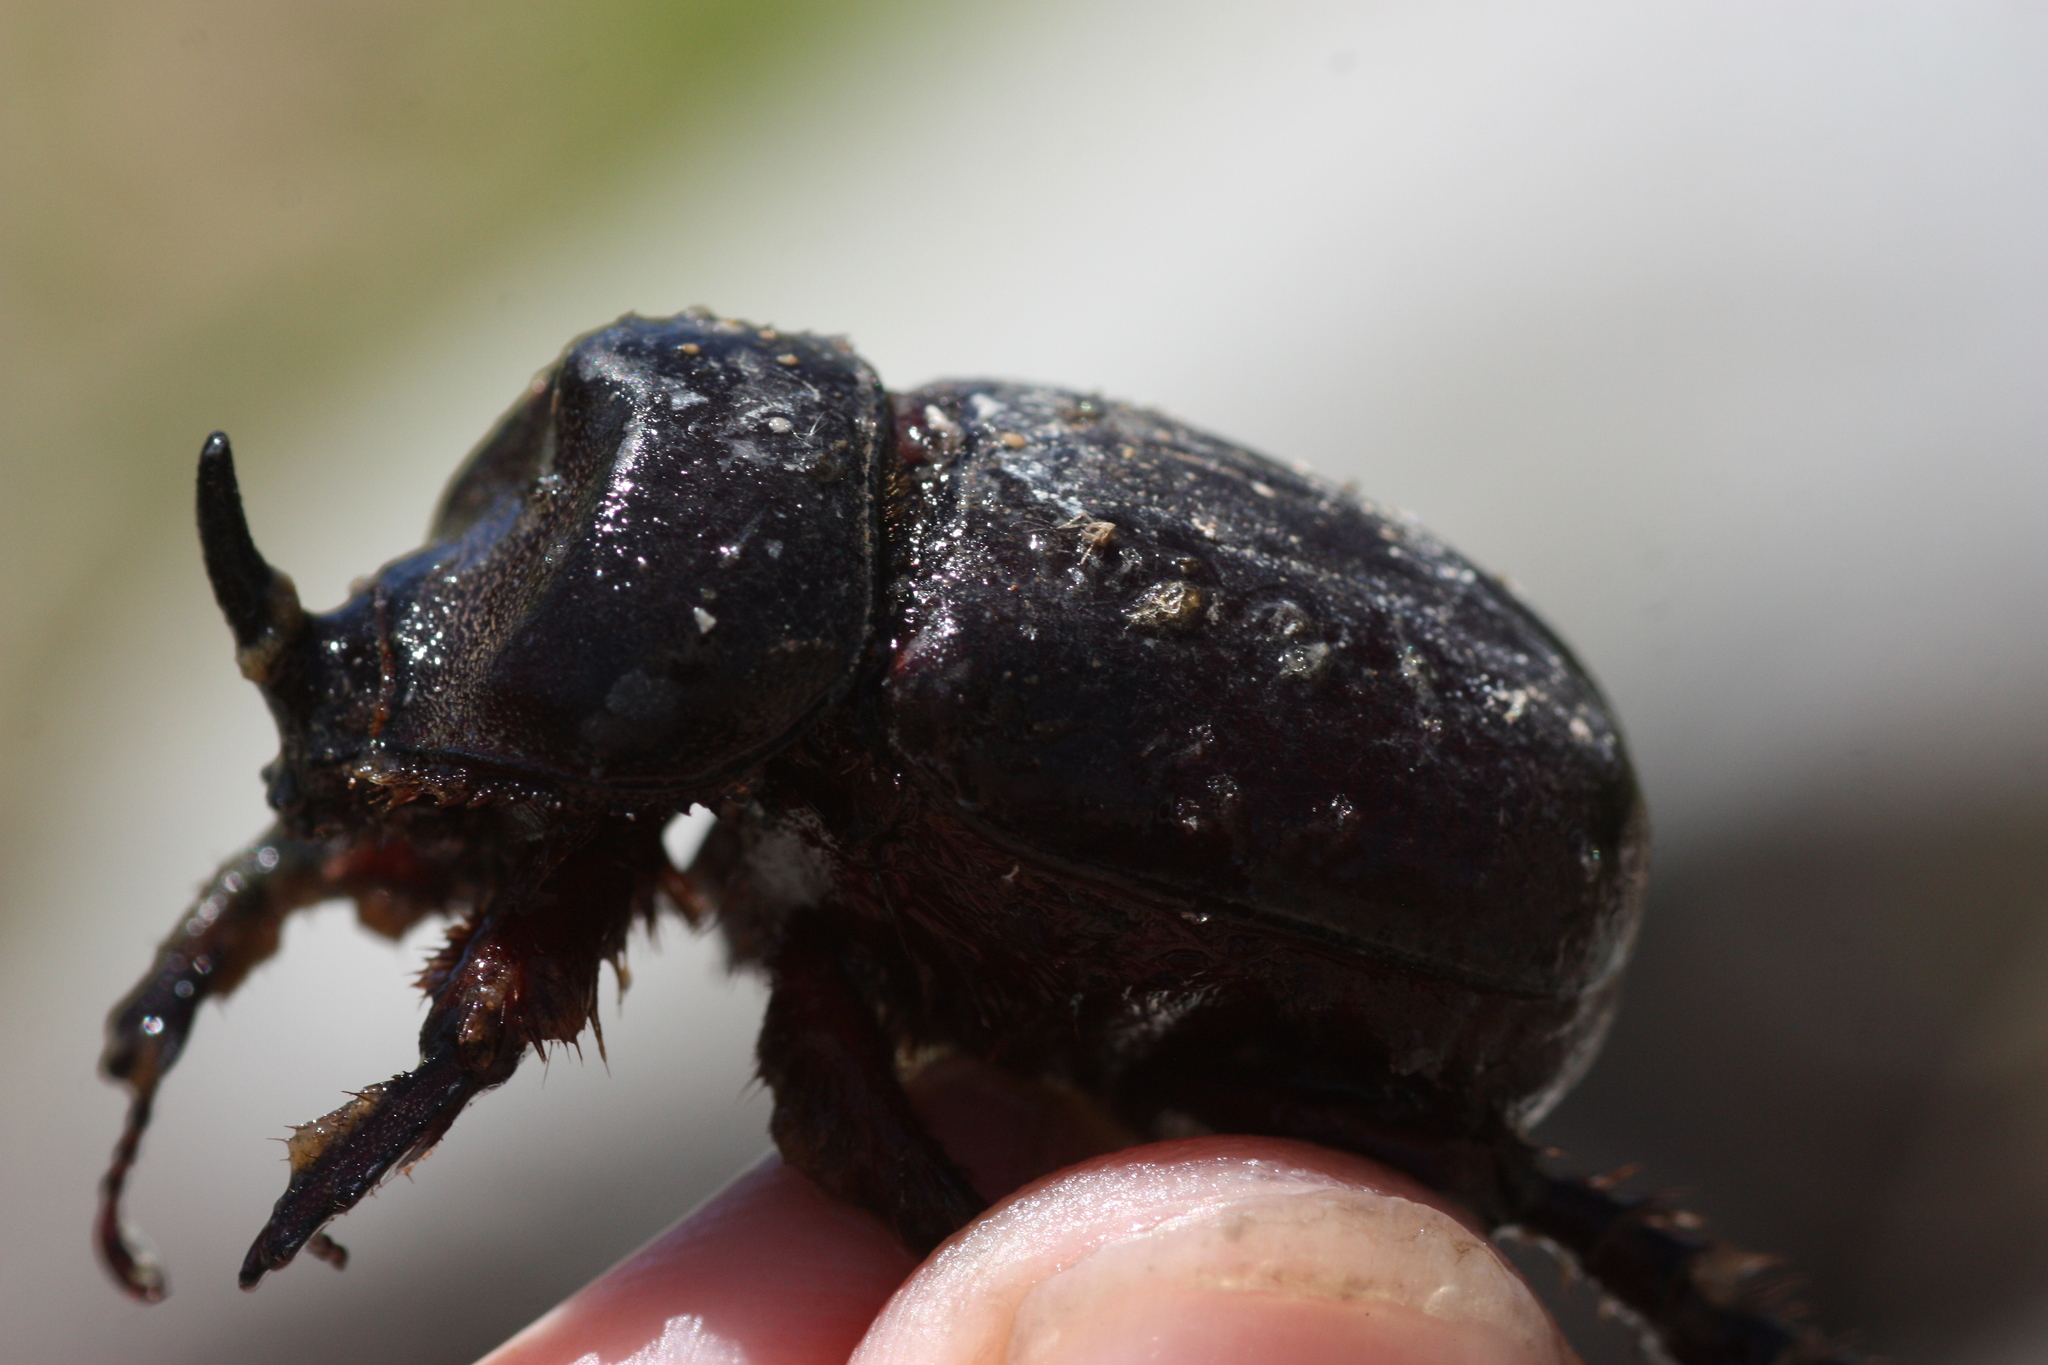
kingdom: Animalia
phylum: Arthropoda
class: Insecta
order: Coleoptera
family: Scarabaeidae
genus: Xyloryctes
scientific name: Xyloryctes thestalus
